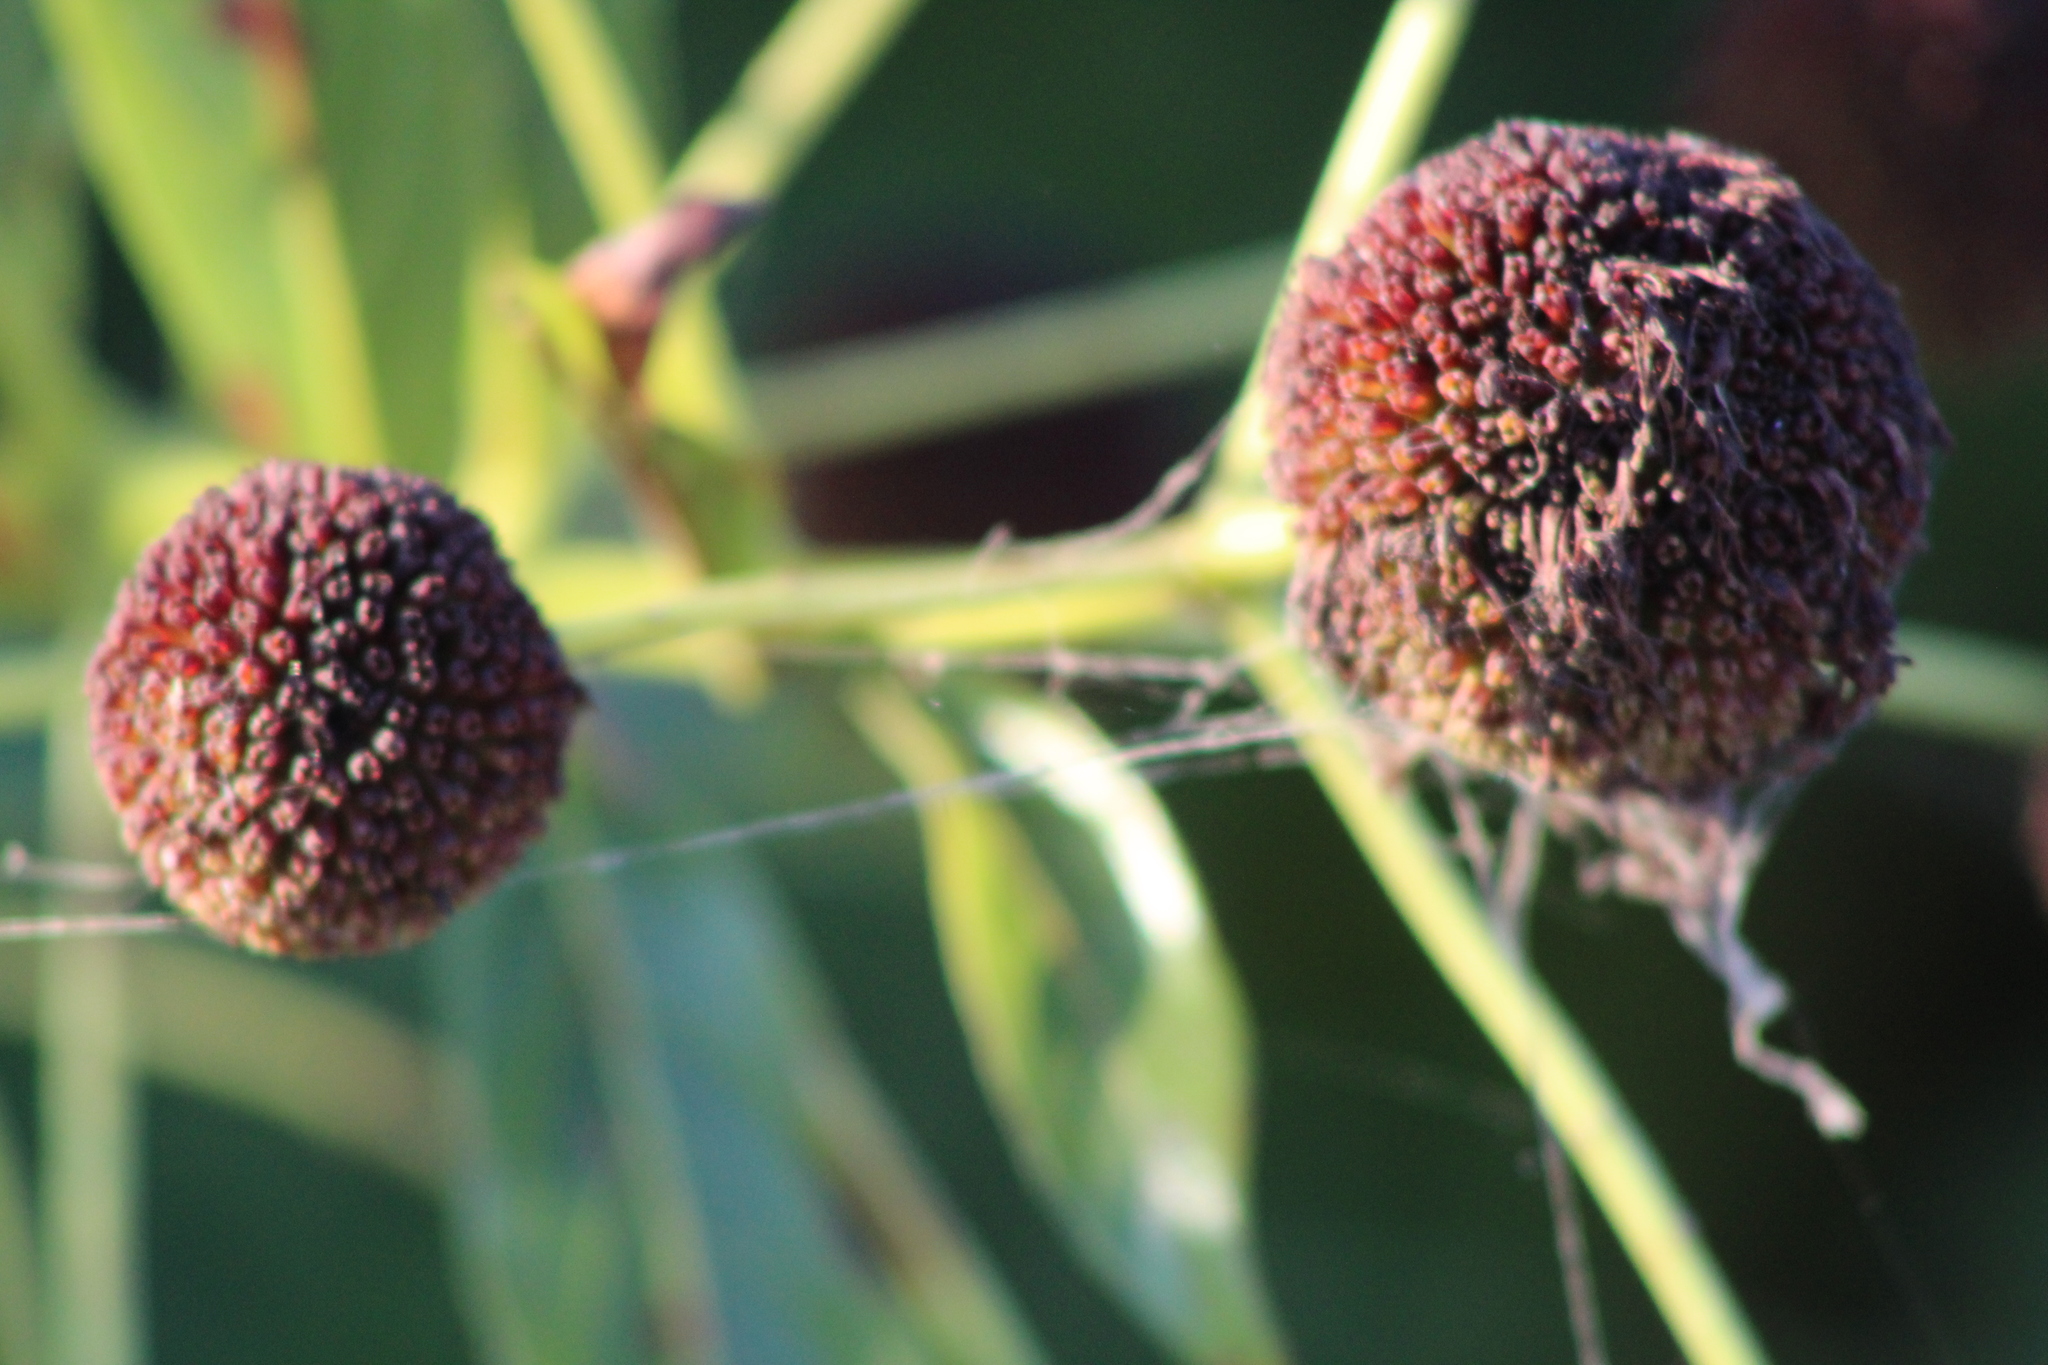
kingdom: Plantae
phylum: Tracheophyta
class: Magnoliopsida
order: Gentianales
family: Rubiaceae
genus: Cephalanthus
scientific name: Cephalanthus occidentalis
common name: Button-willow
